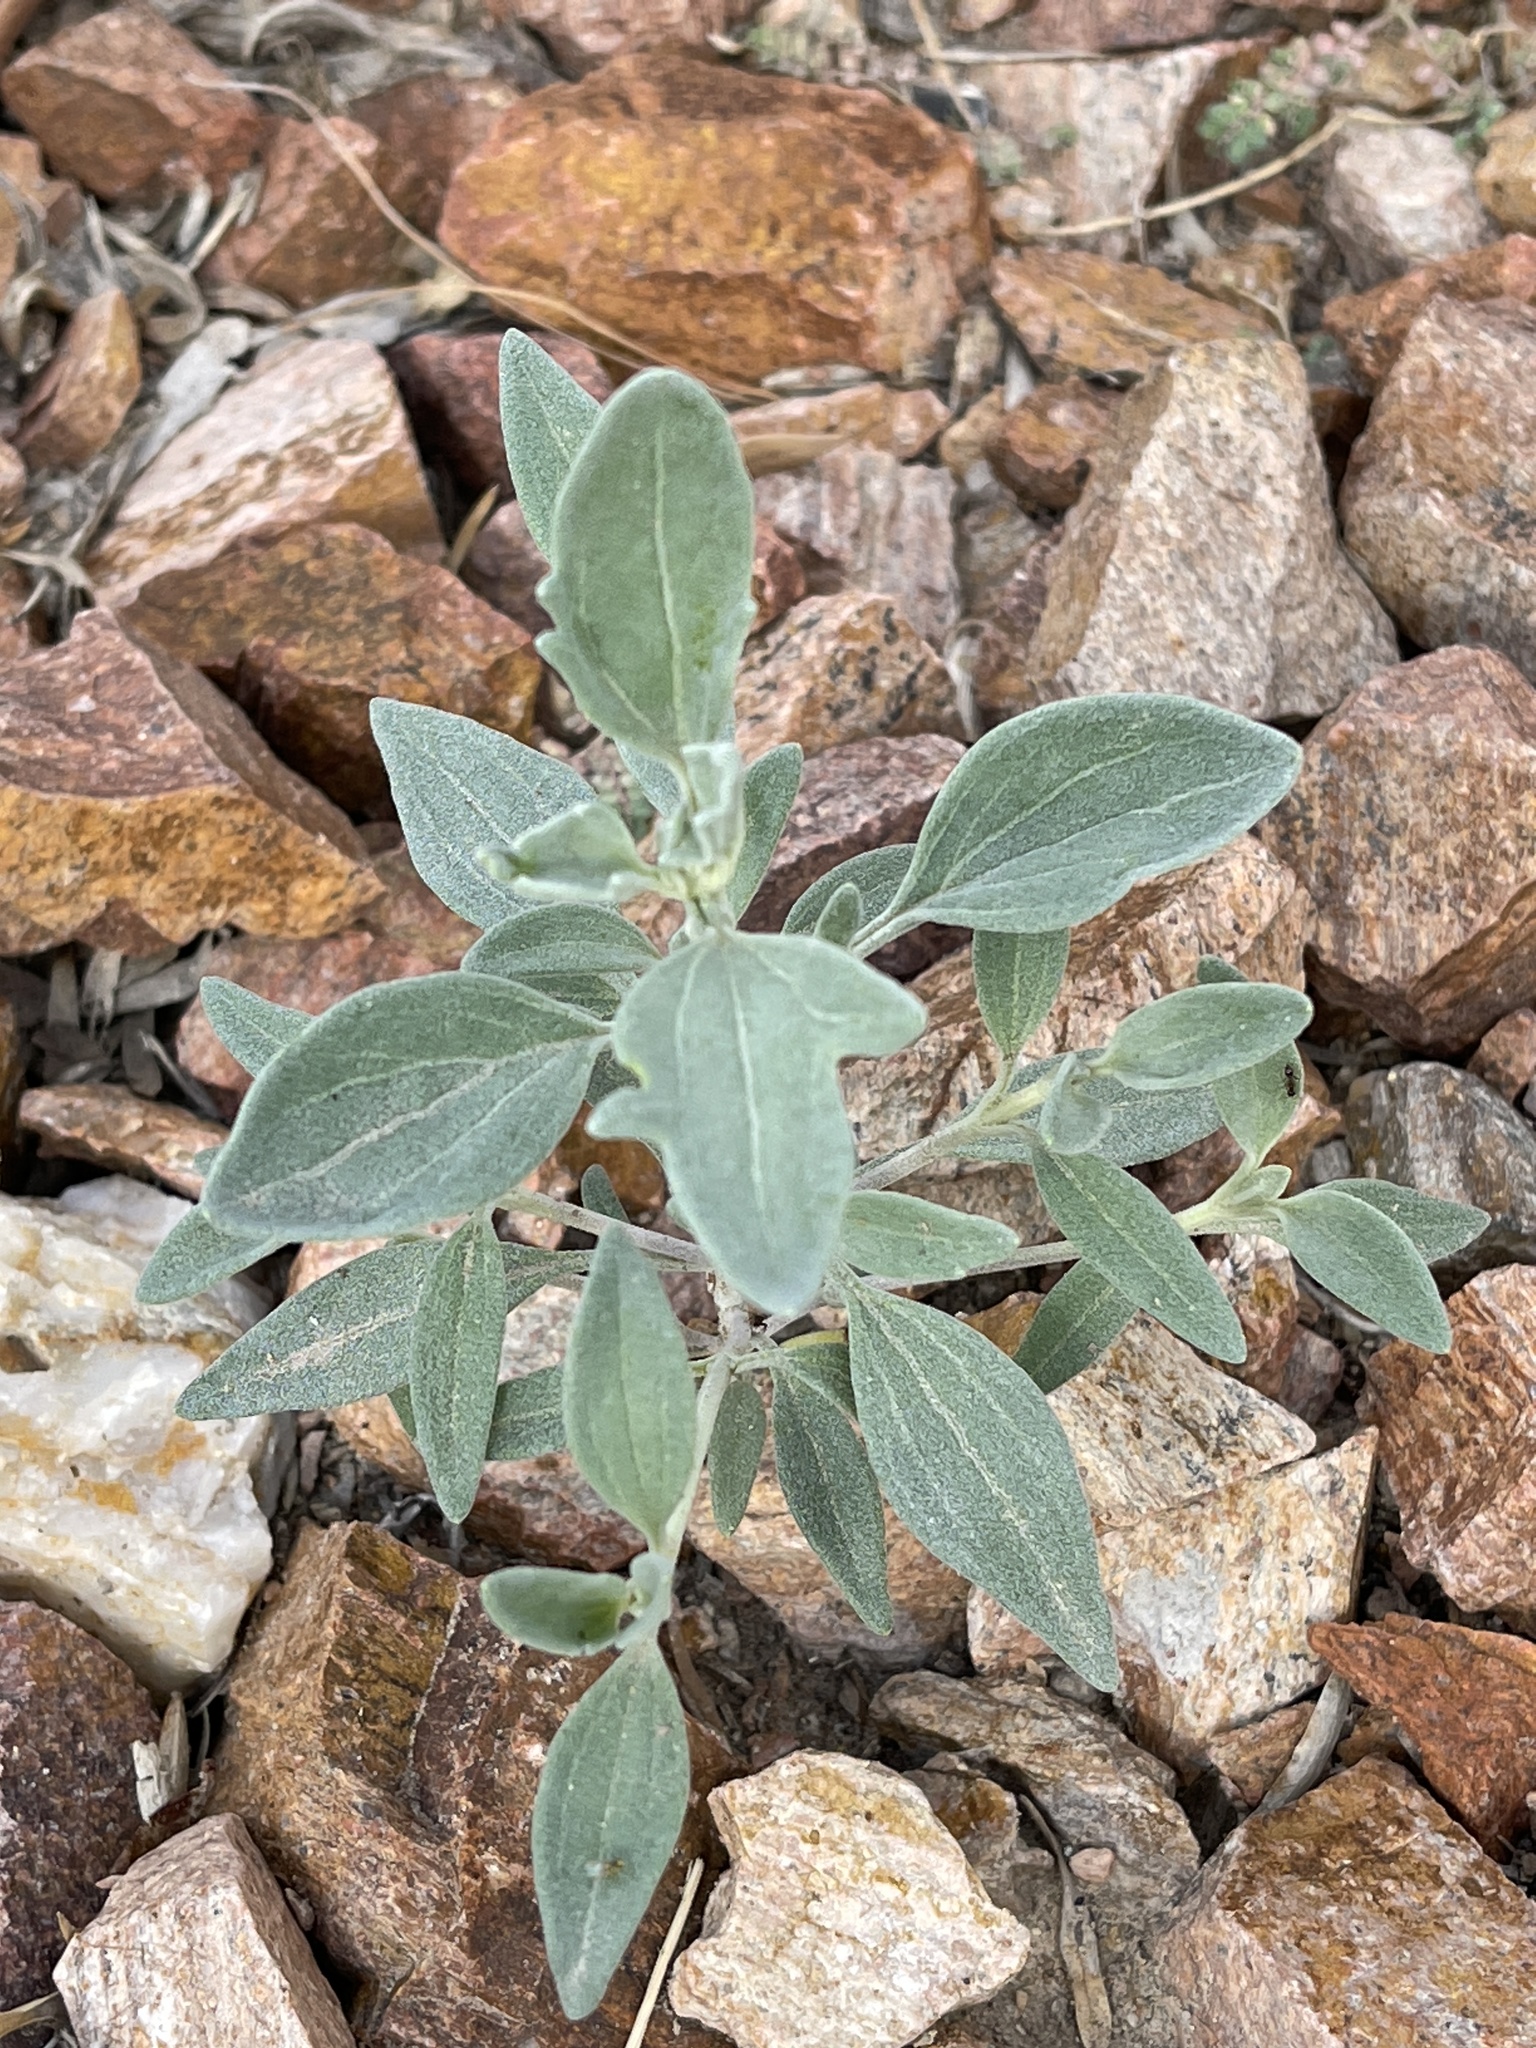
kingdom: Plantae
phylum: Tracheophyta
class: Magnoliopsida
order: Asterales
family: Asteraceae
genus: Picradeniopsis
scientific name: Picradeniopsis absinthifolia
